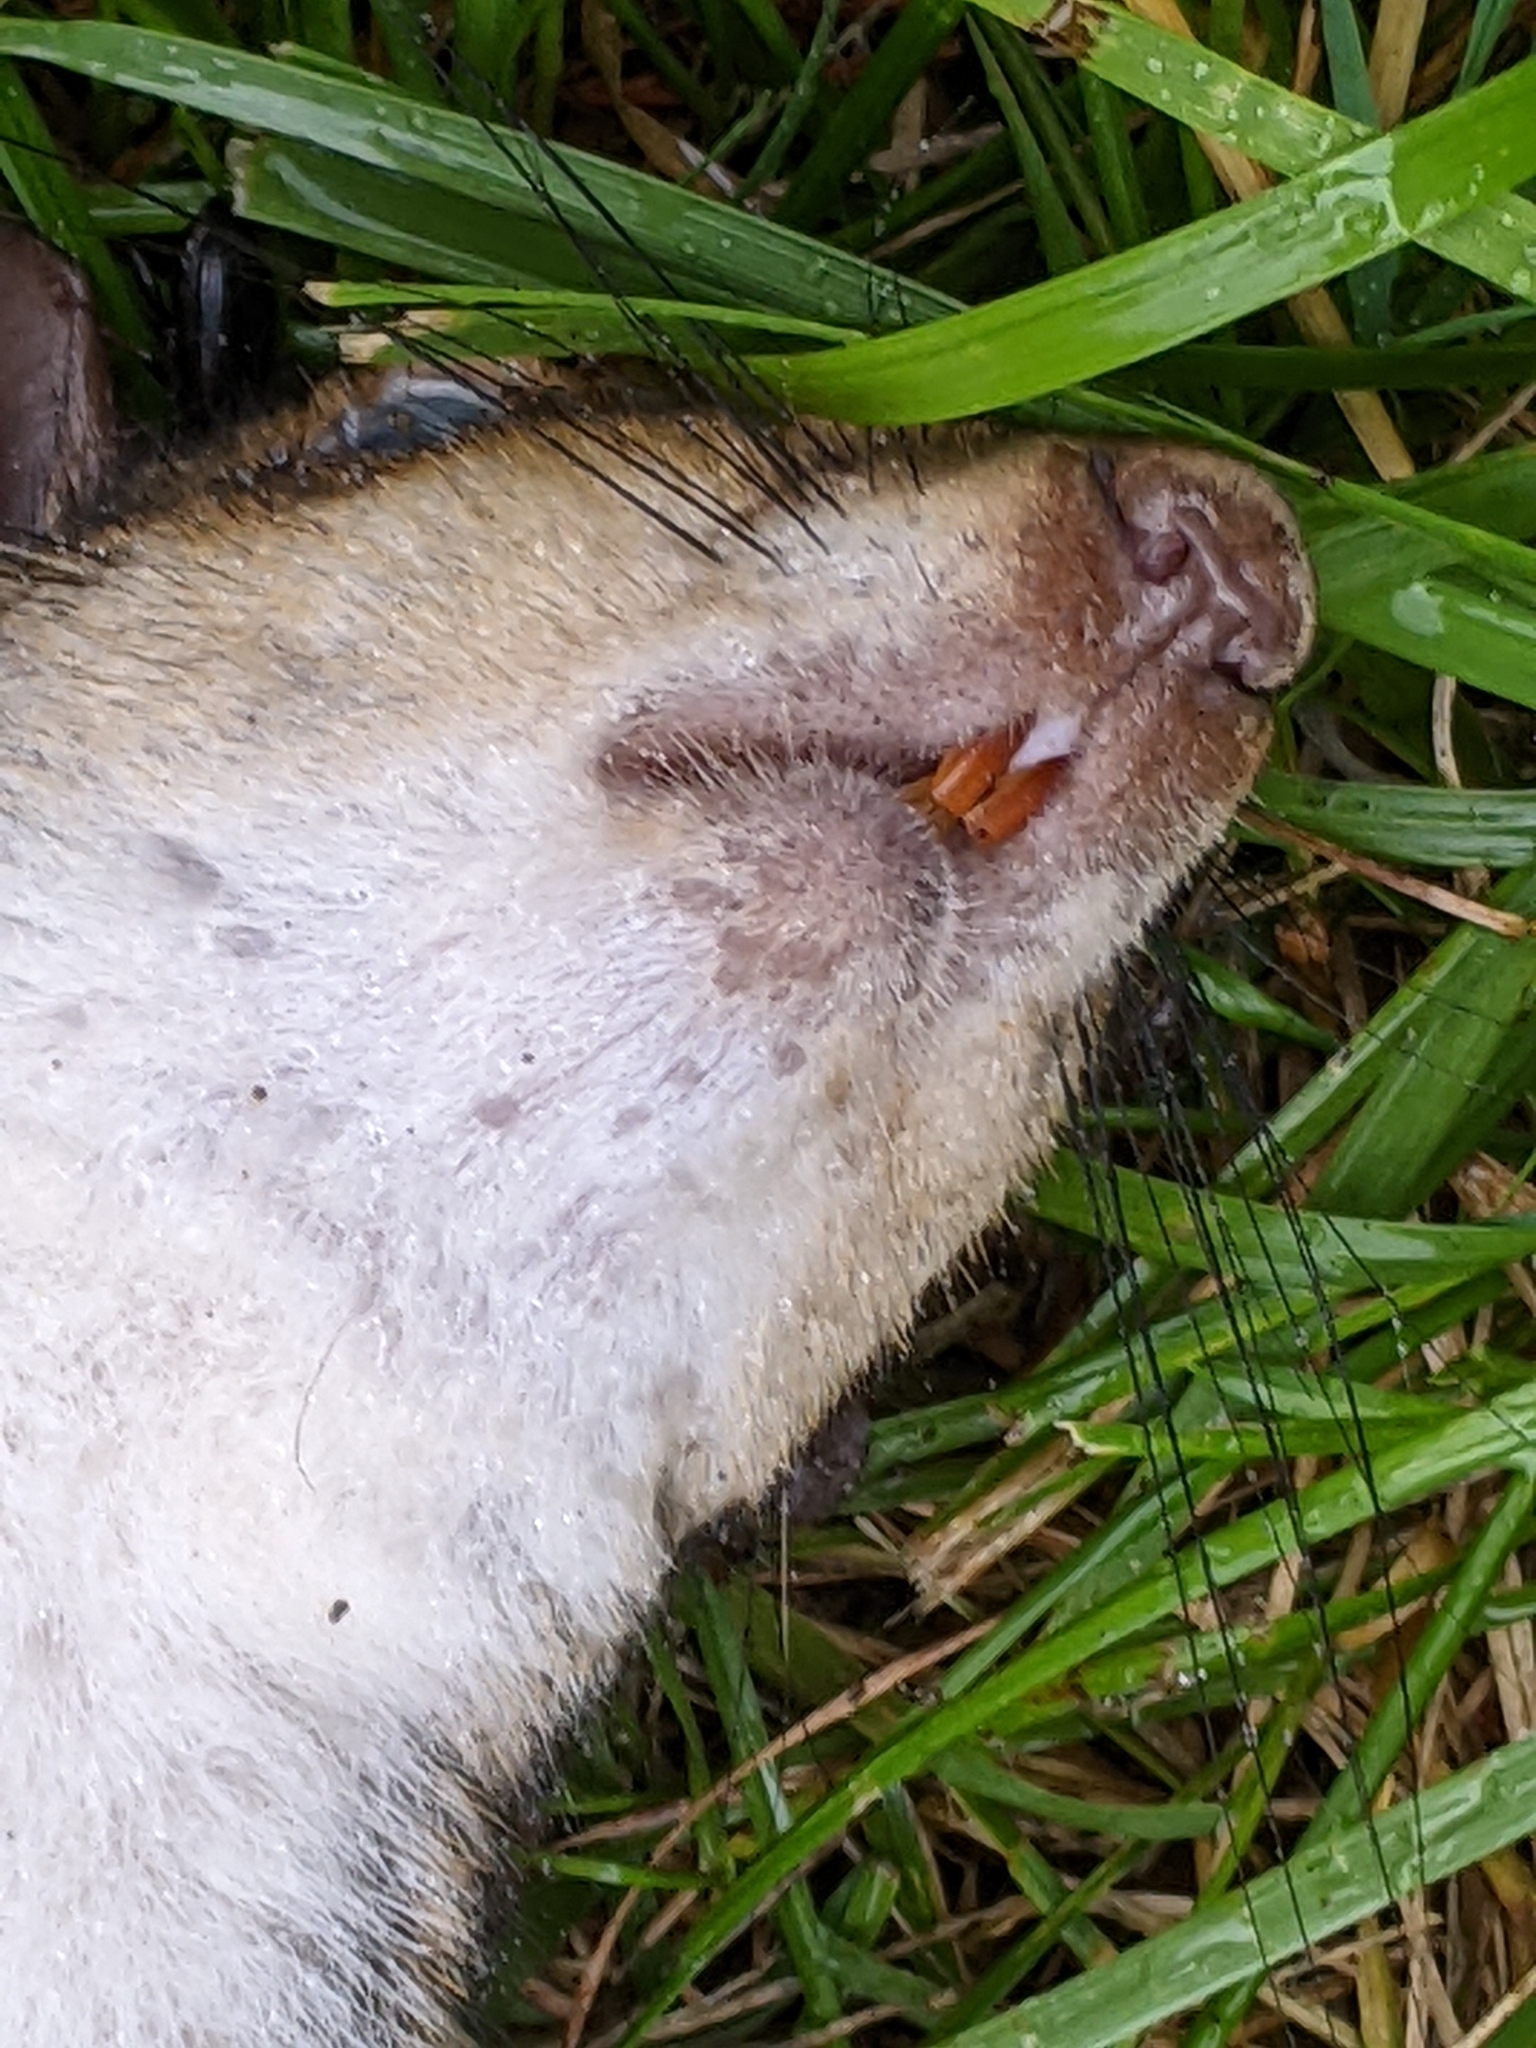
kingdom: Animalia
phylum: Chordata
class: Mammalia
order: Rodentia
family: Sciuridae
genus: Sciurus
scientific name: Sciurus carolinensis
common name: Eastern gray squirrel
